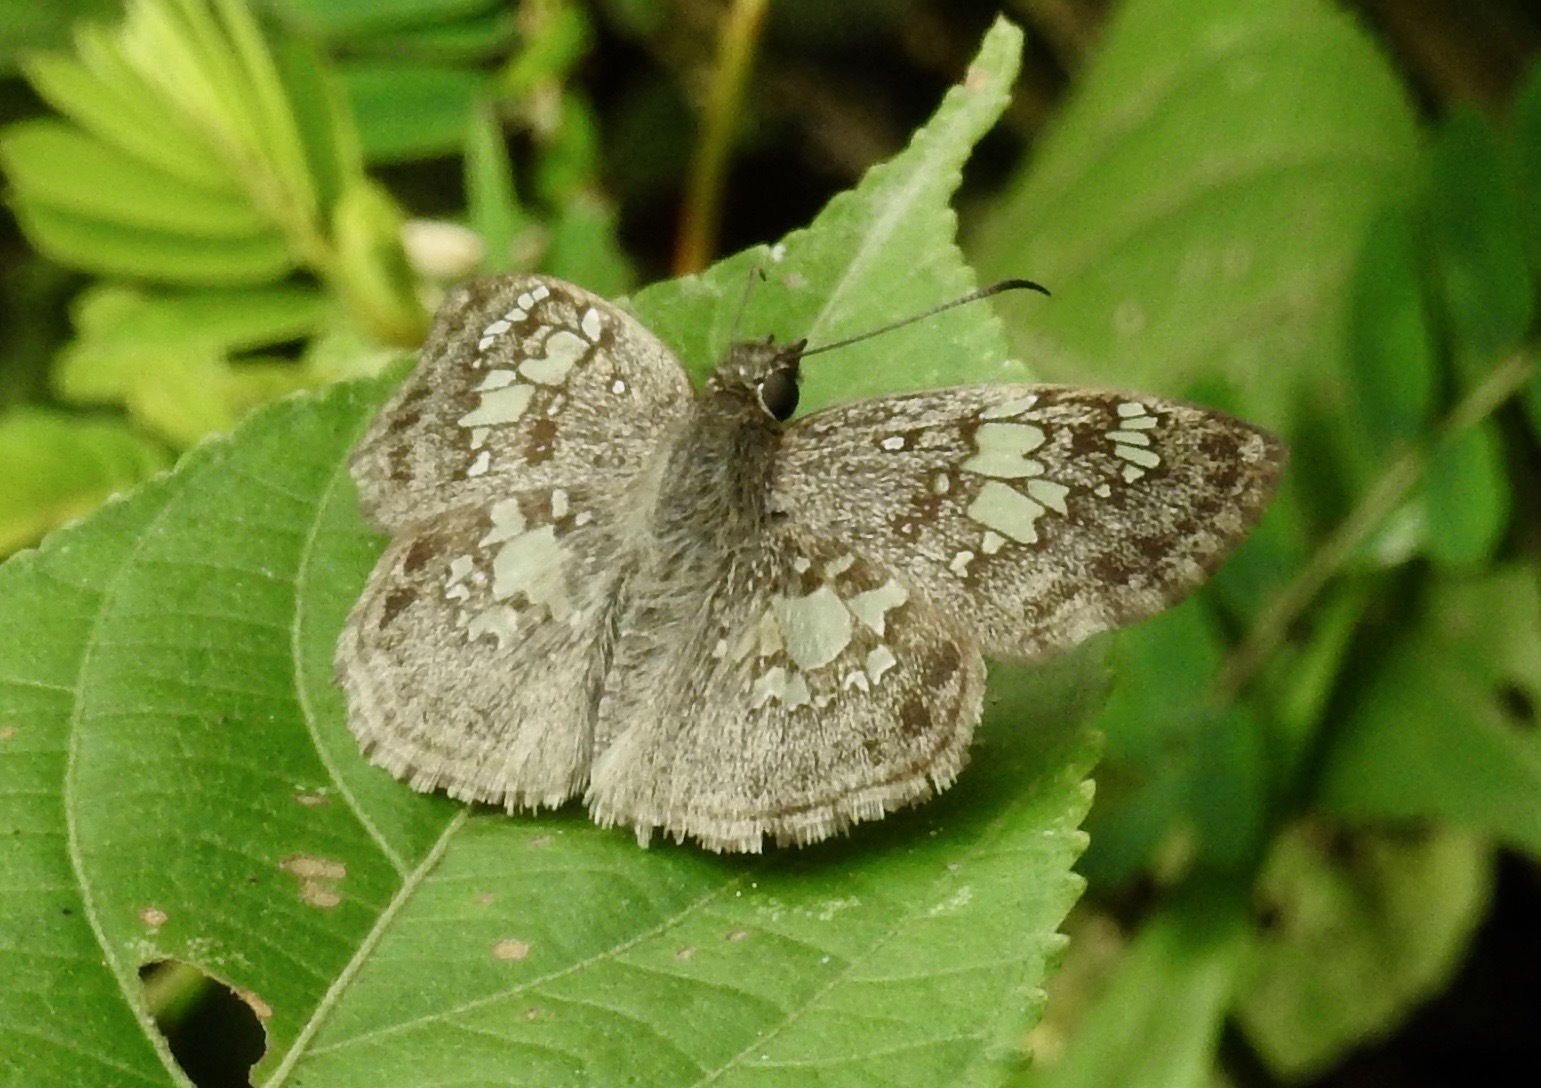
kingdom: Animalia
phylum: Arthropoda
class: Insecta
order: Lepidoptera
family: Hesperiidae
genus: Xenophanes
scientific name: Xenophanes tryxus
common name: Glassy-winged skipper
